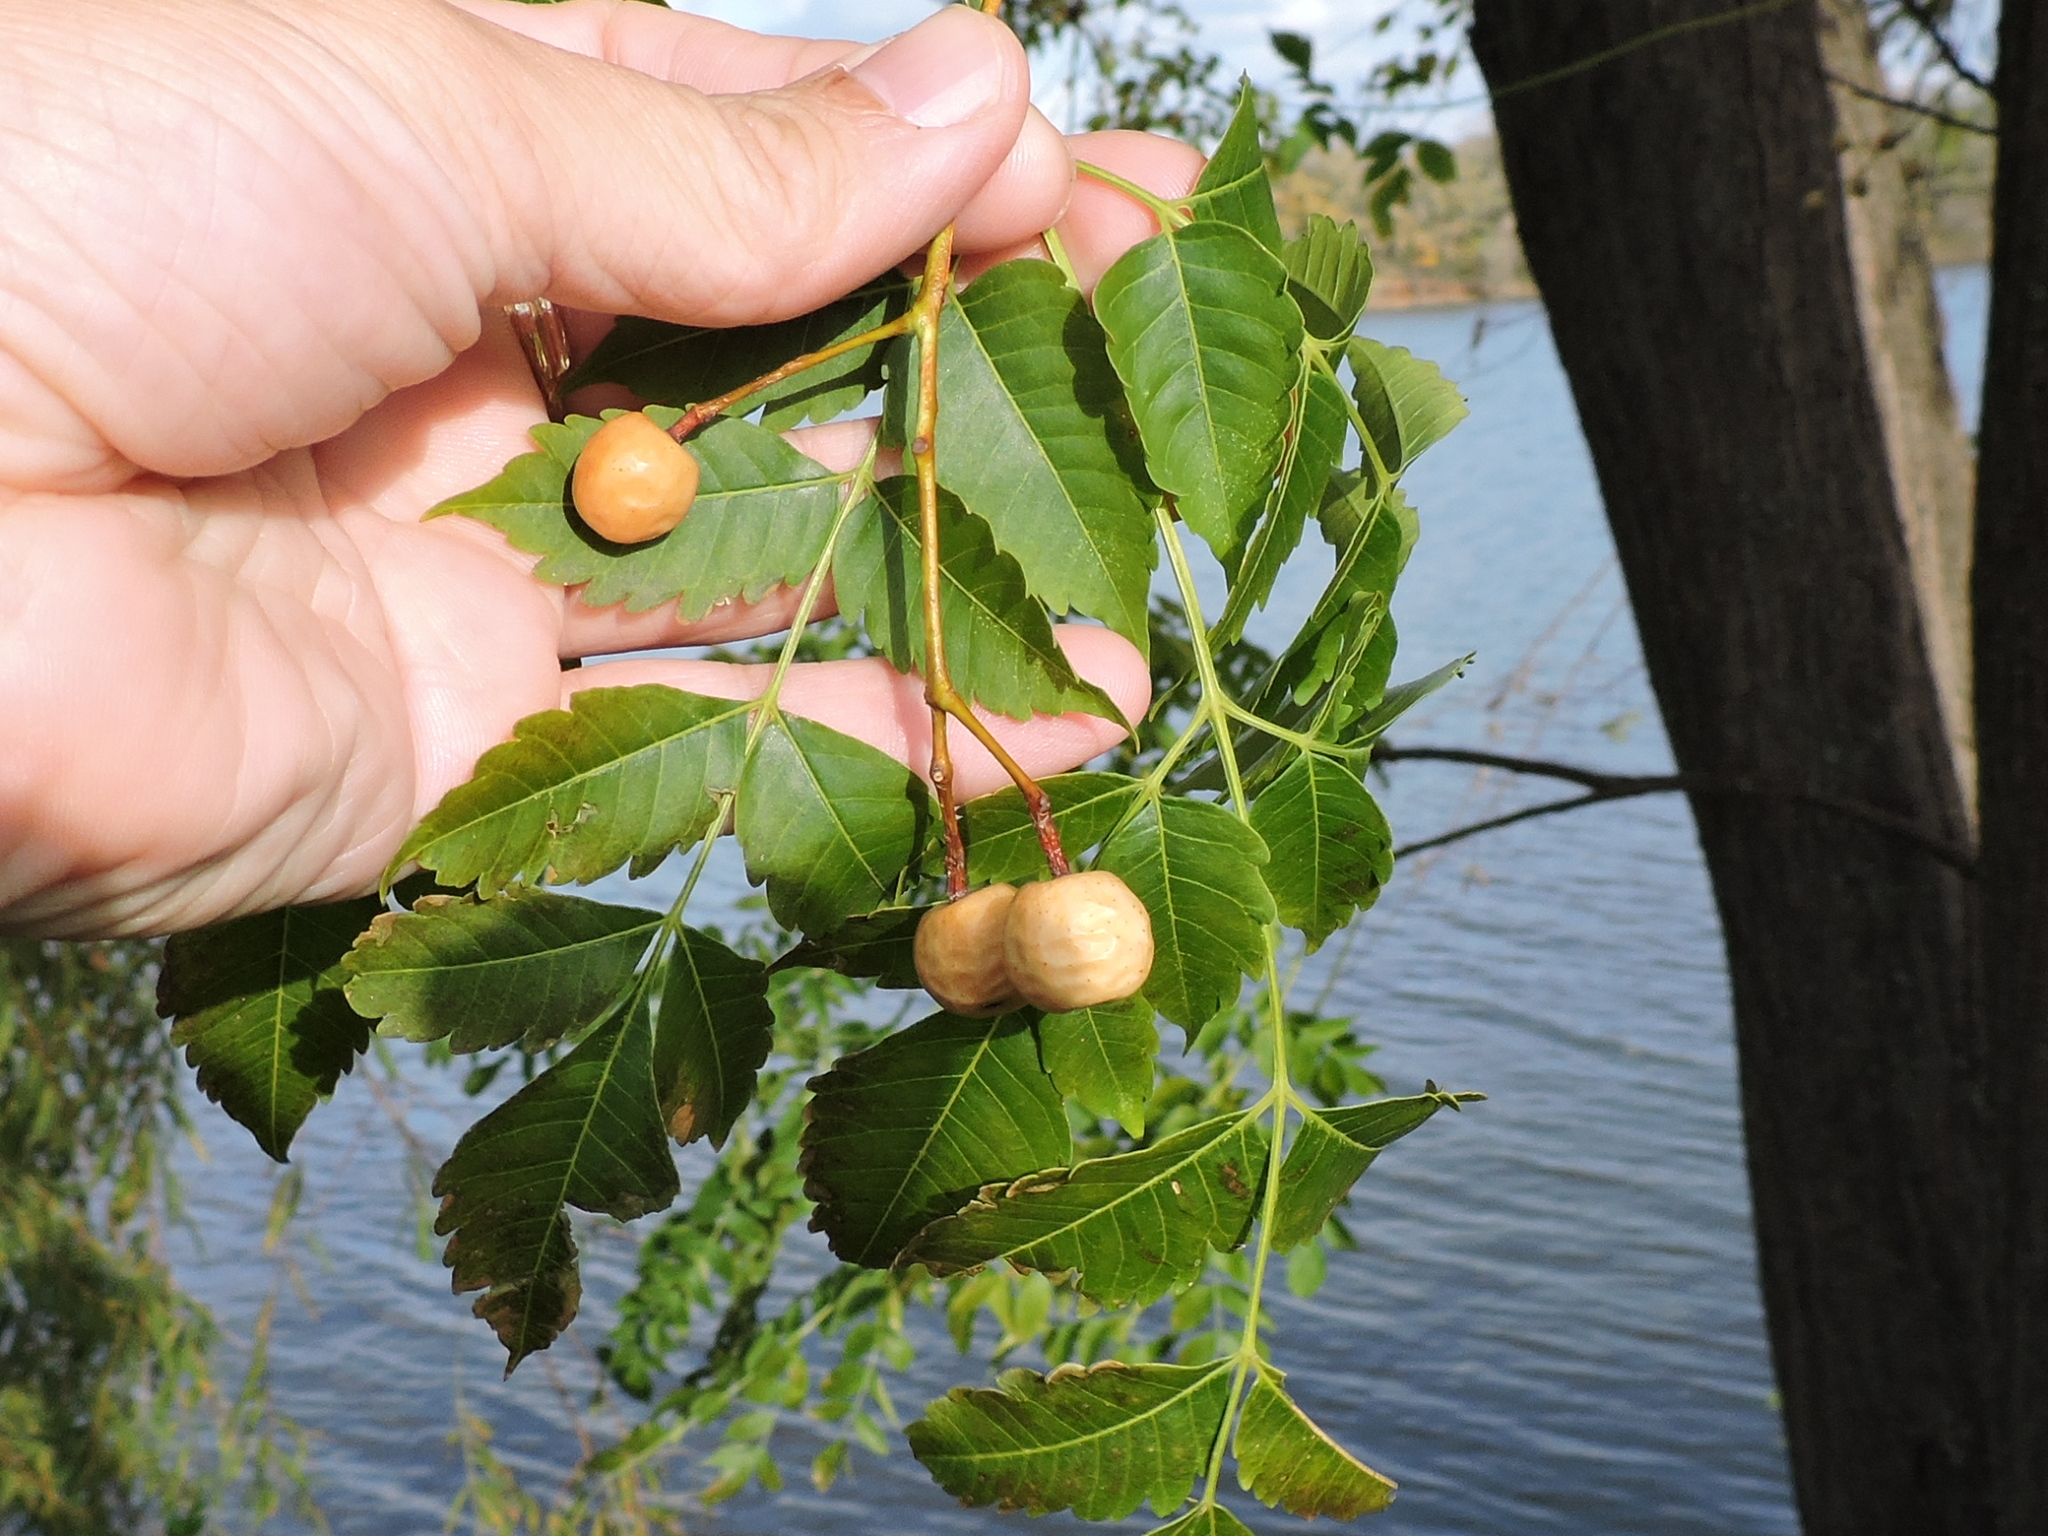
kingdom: Plantae
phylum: Tracheophyta
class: Magnoliopsida
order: Sapindales
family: Meliaceae
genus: Melia
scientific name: Melia azedarach
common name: Chinaberrytree
